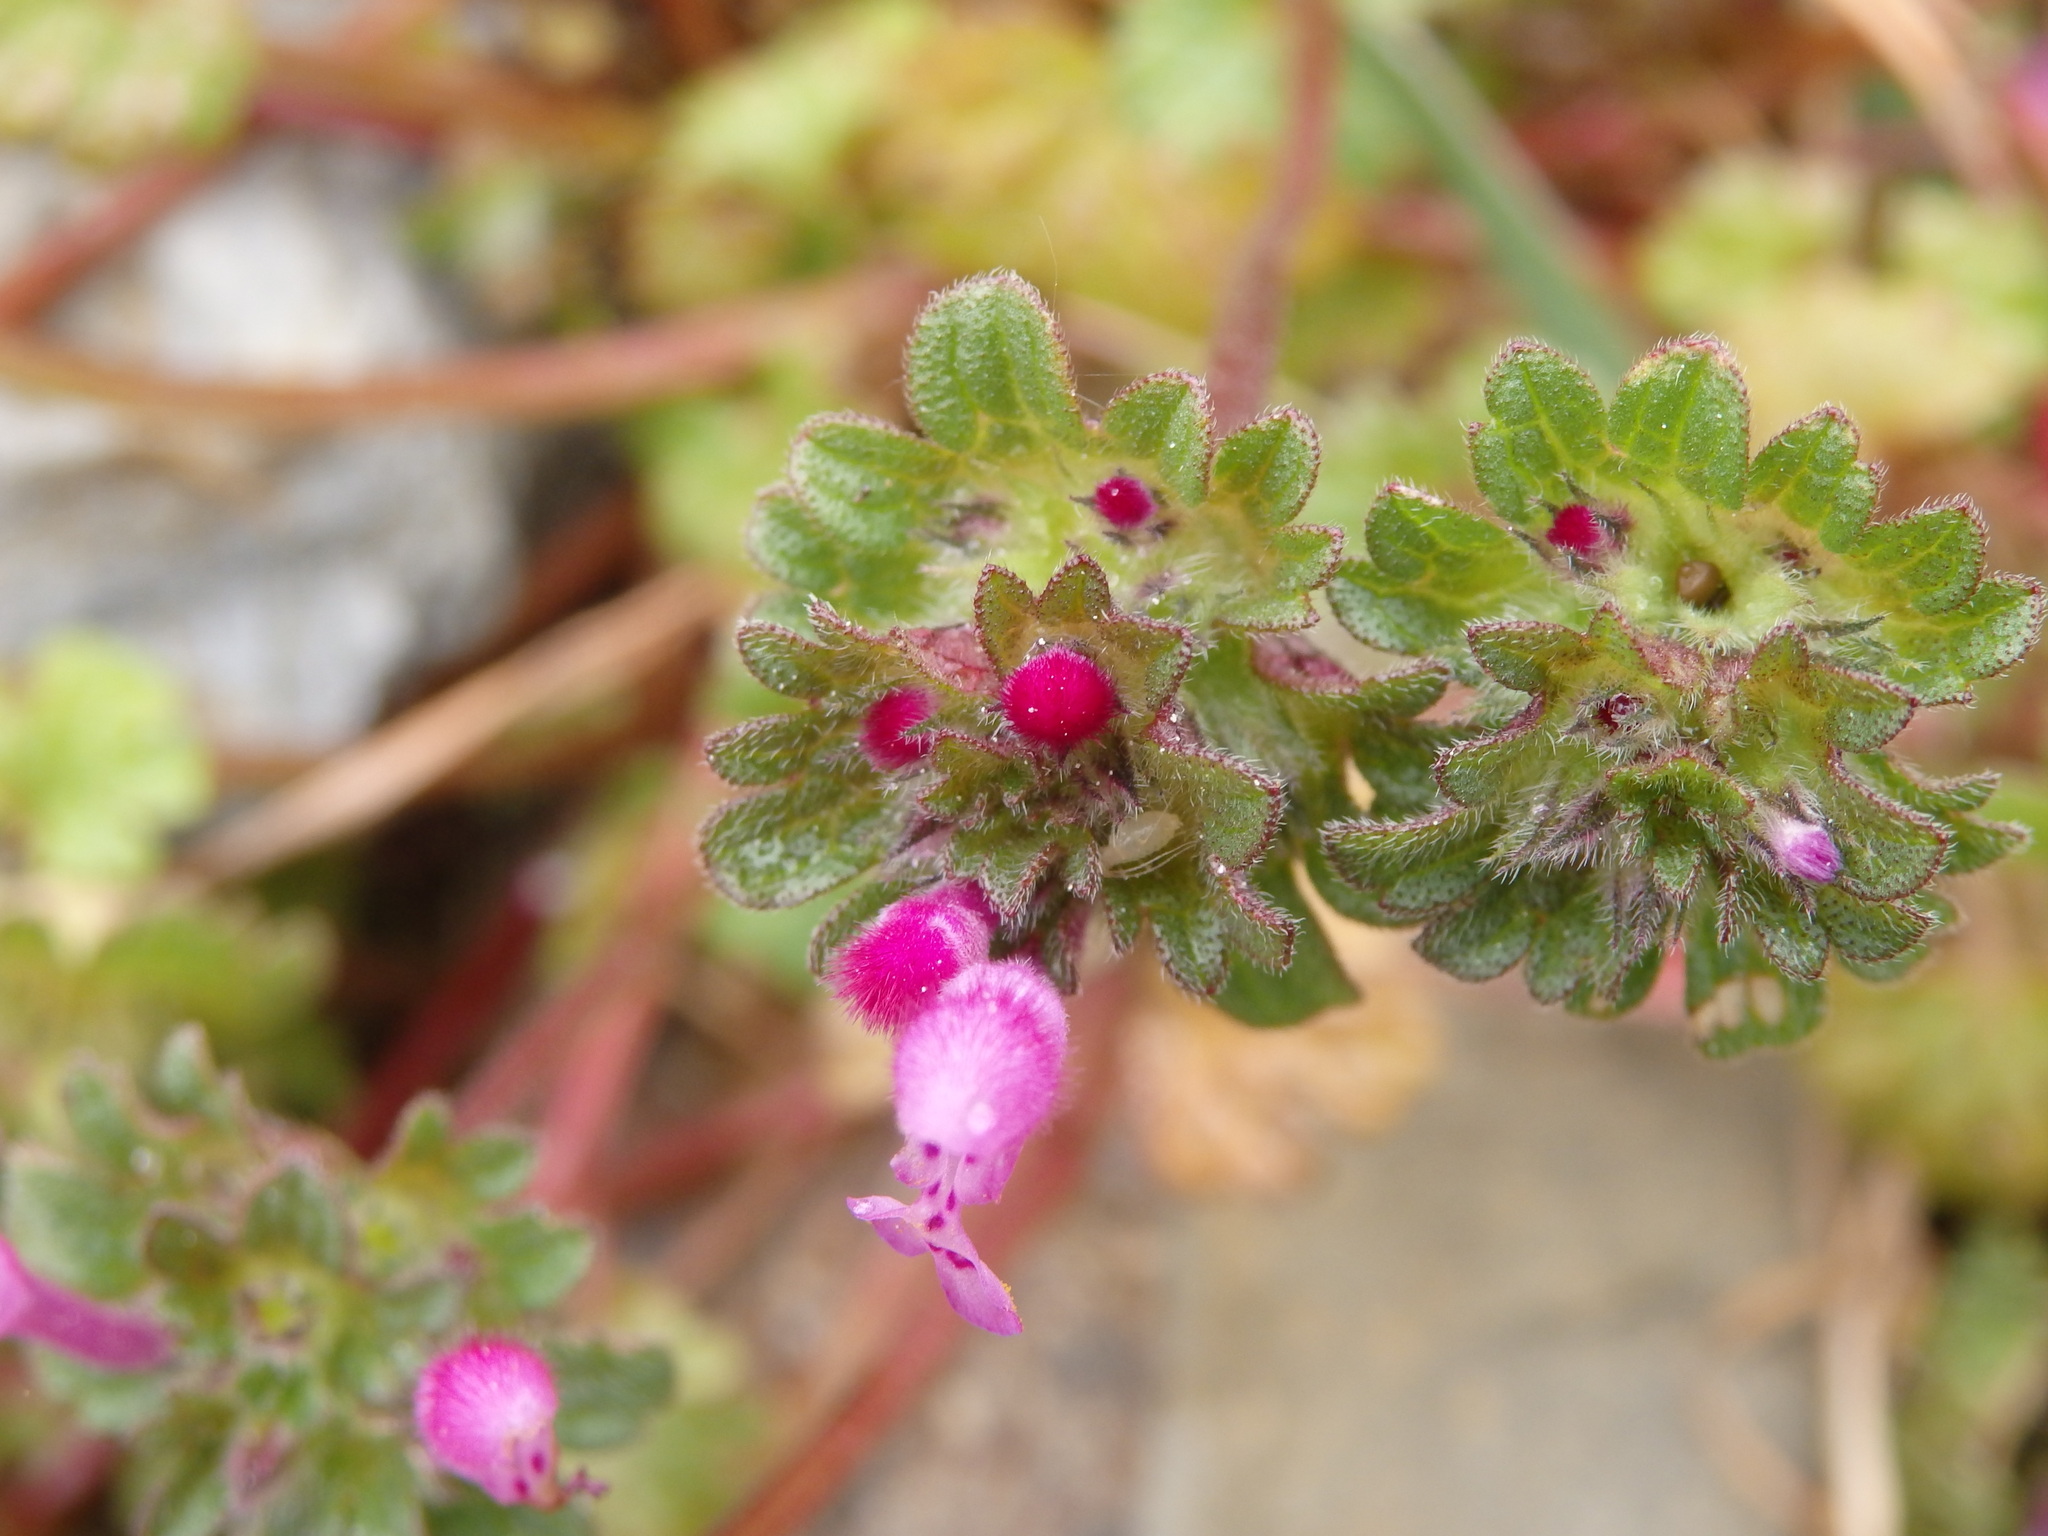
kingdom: Plantae
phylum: Tracheophyta
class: Magnoliopsida
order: Lamiales
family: Lamiaceae
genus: Lamium
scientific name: Lamium amplexicaule
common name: Henbit dead-nettle
